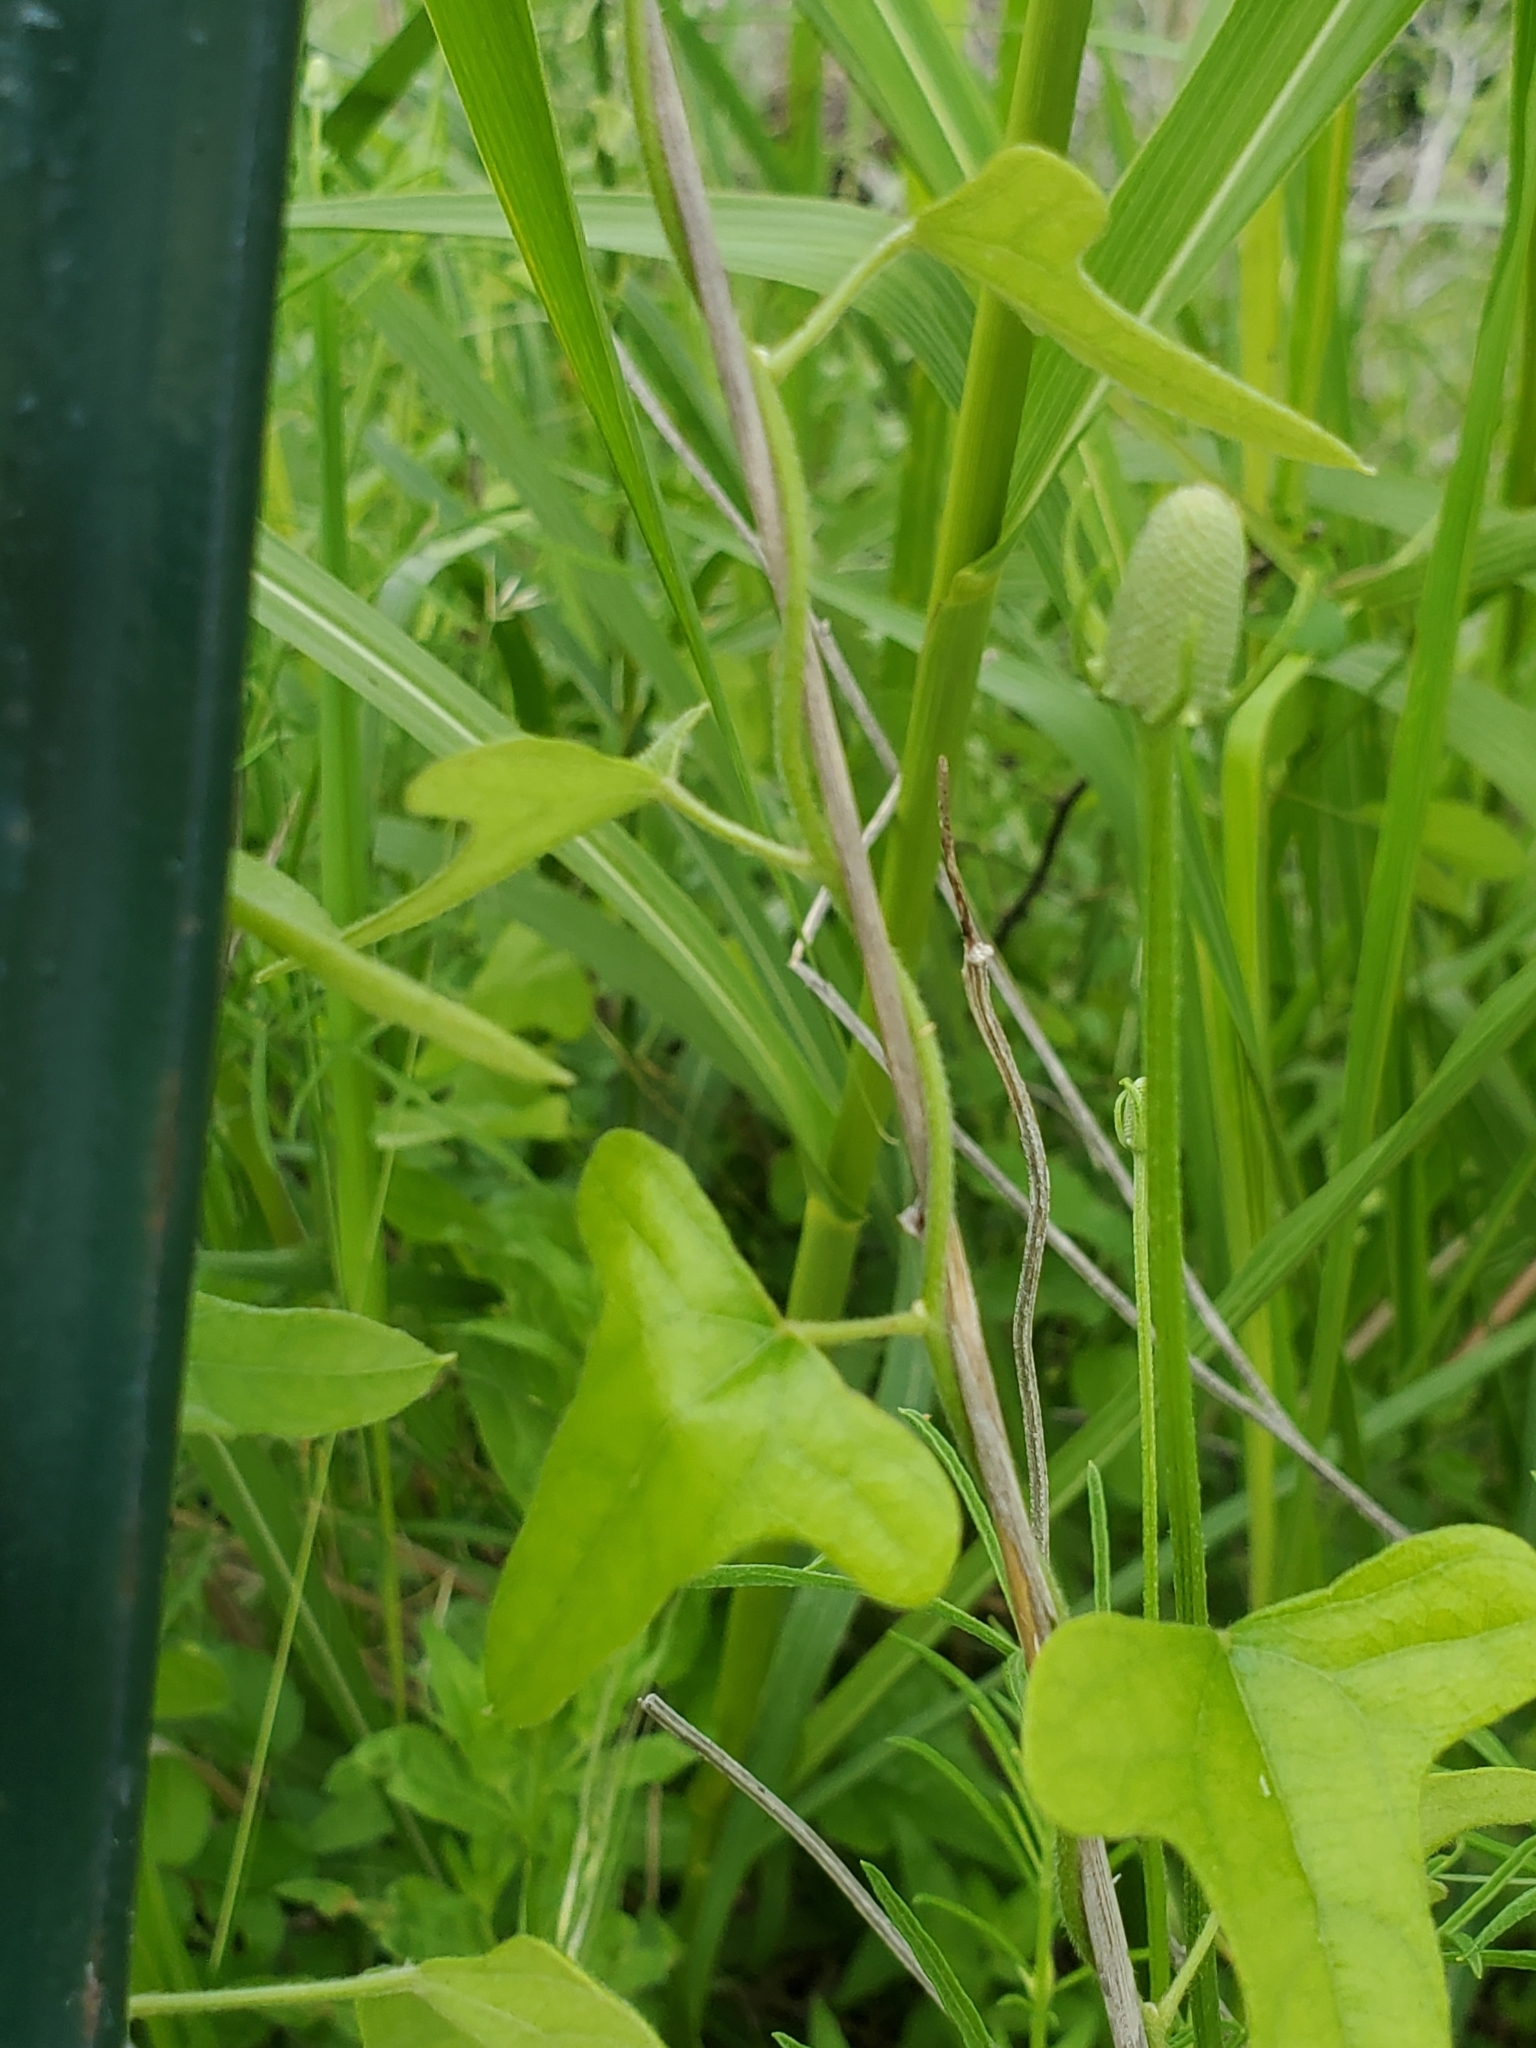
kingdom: Plantae
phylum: Tracheophyta
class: Magnoliopsida
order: Ranunculales
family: Menispermaceae
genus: Cocculus
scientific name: Cocculus carolinus
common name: Carolina moonseed
